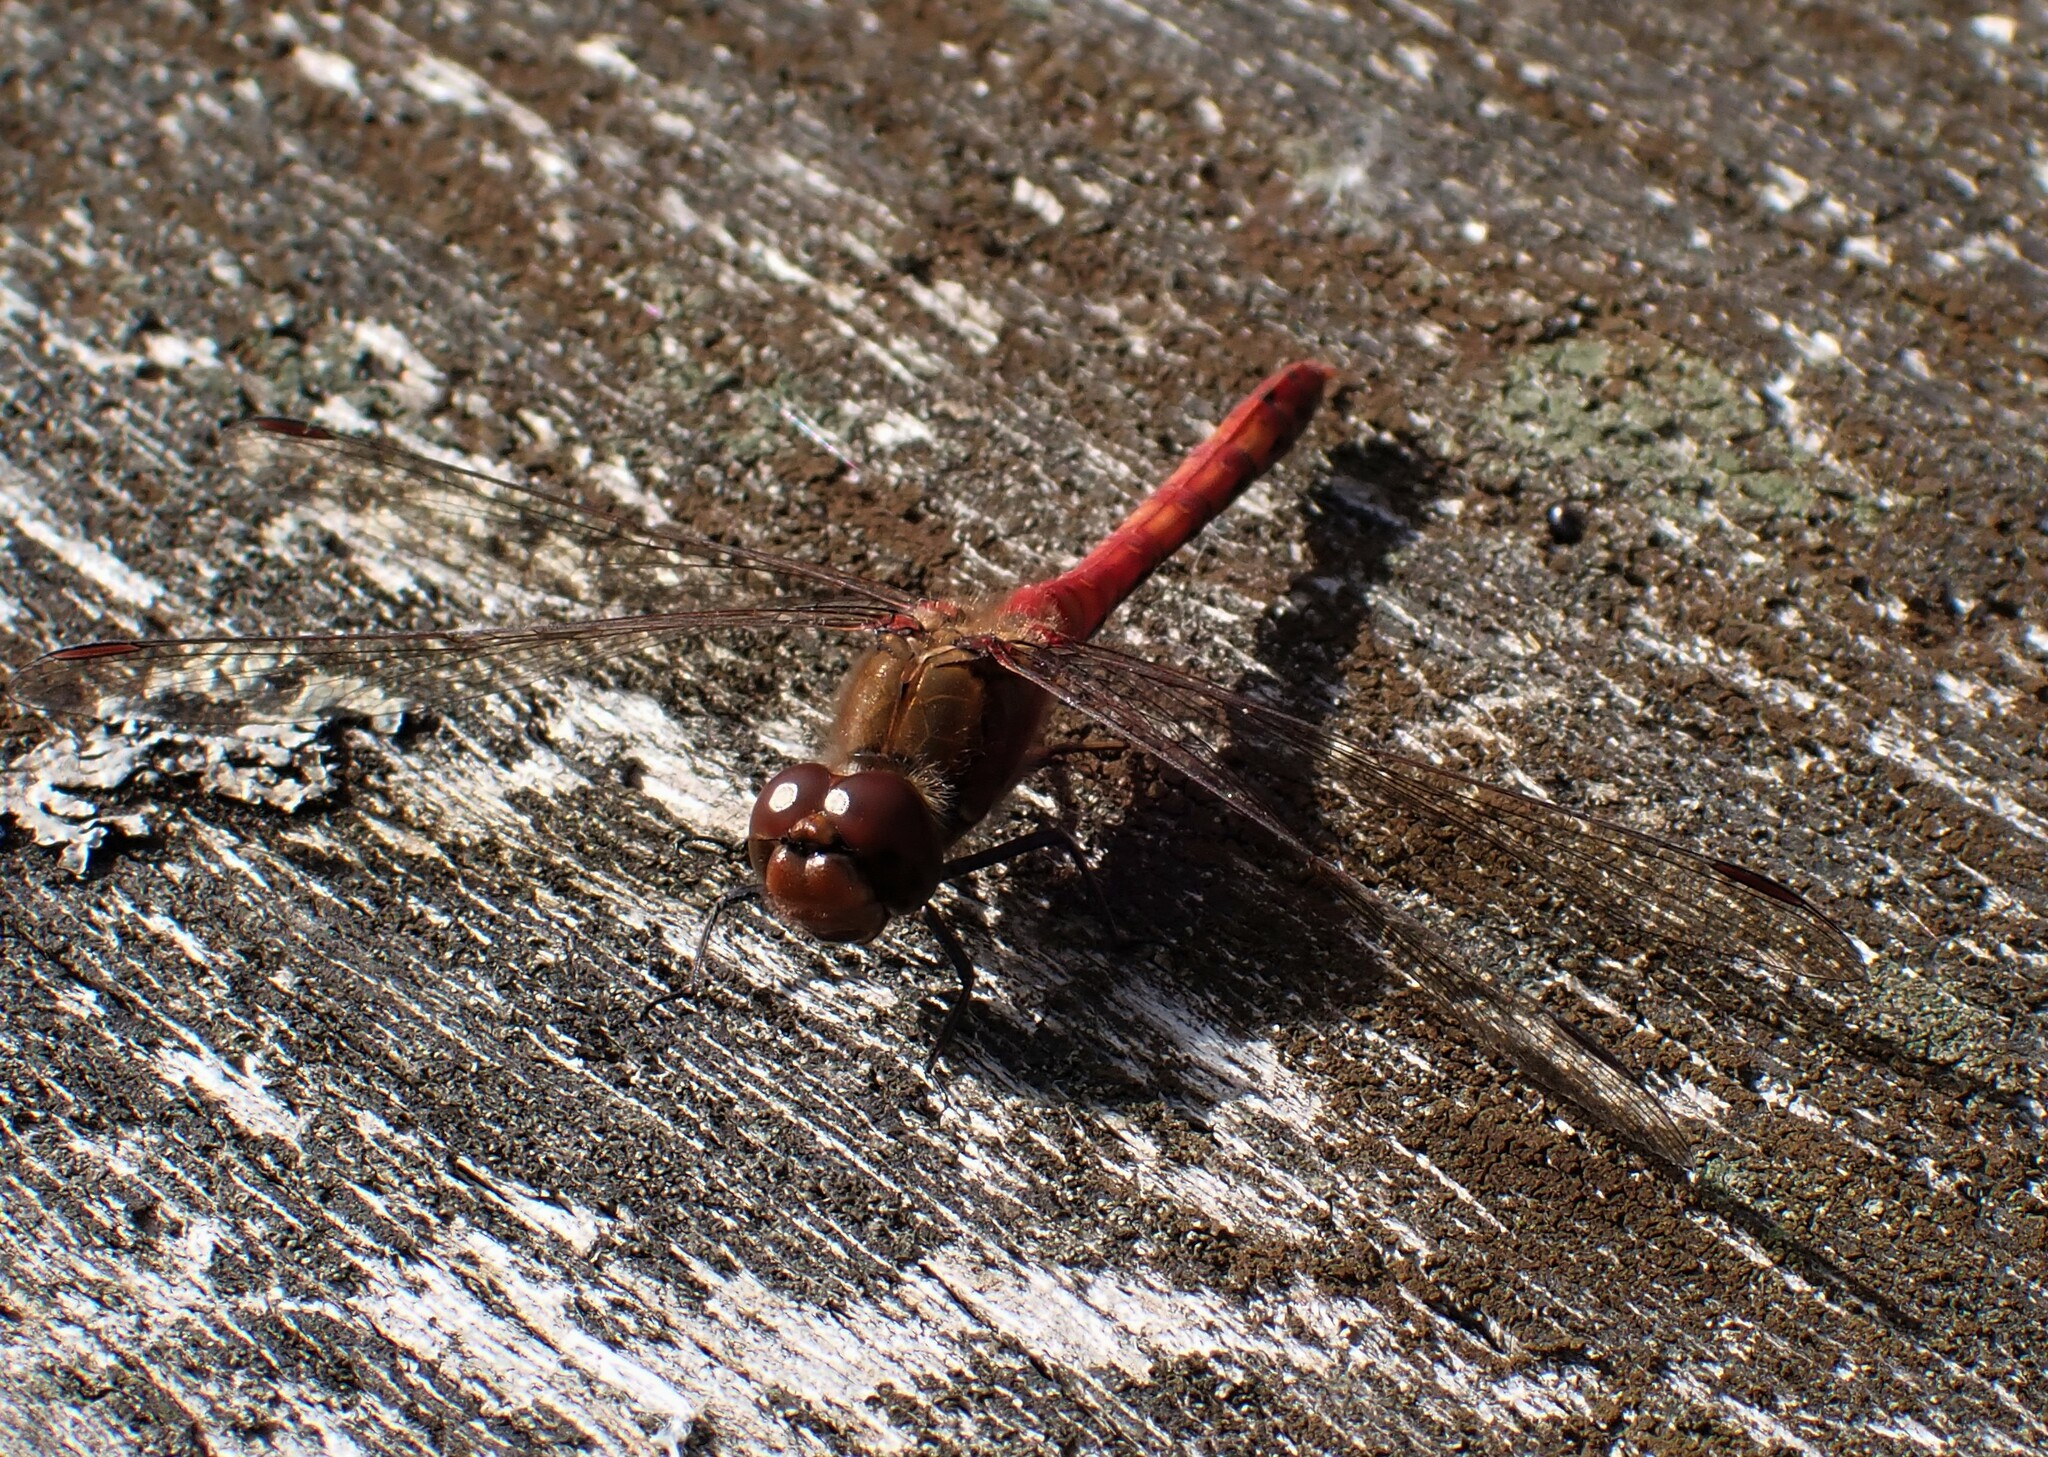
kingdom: Animalia
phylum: Arthropoda
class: Insecta
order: Odonata
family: Libellulidae
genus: Sympetrum
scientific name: Sympetrum sanguineum
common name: Ruddy darter
